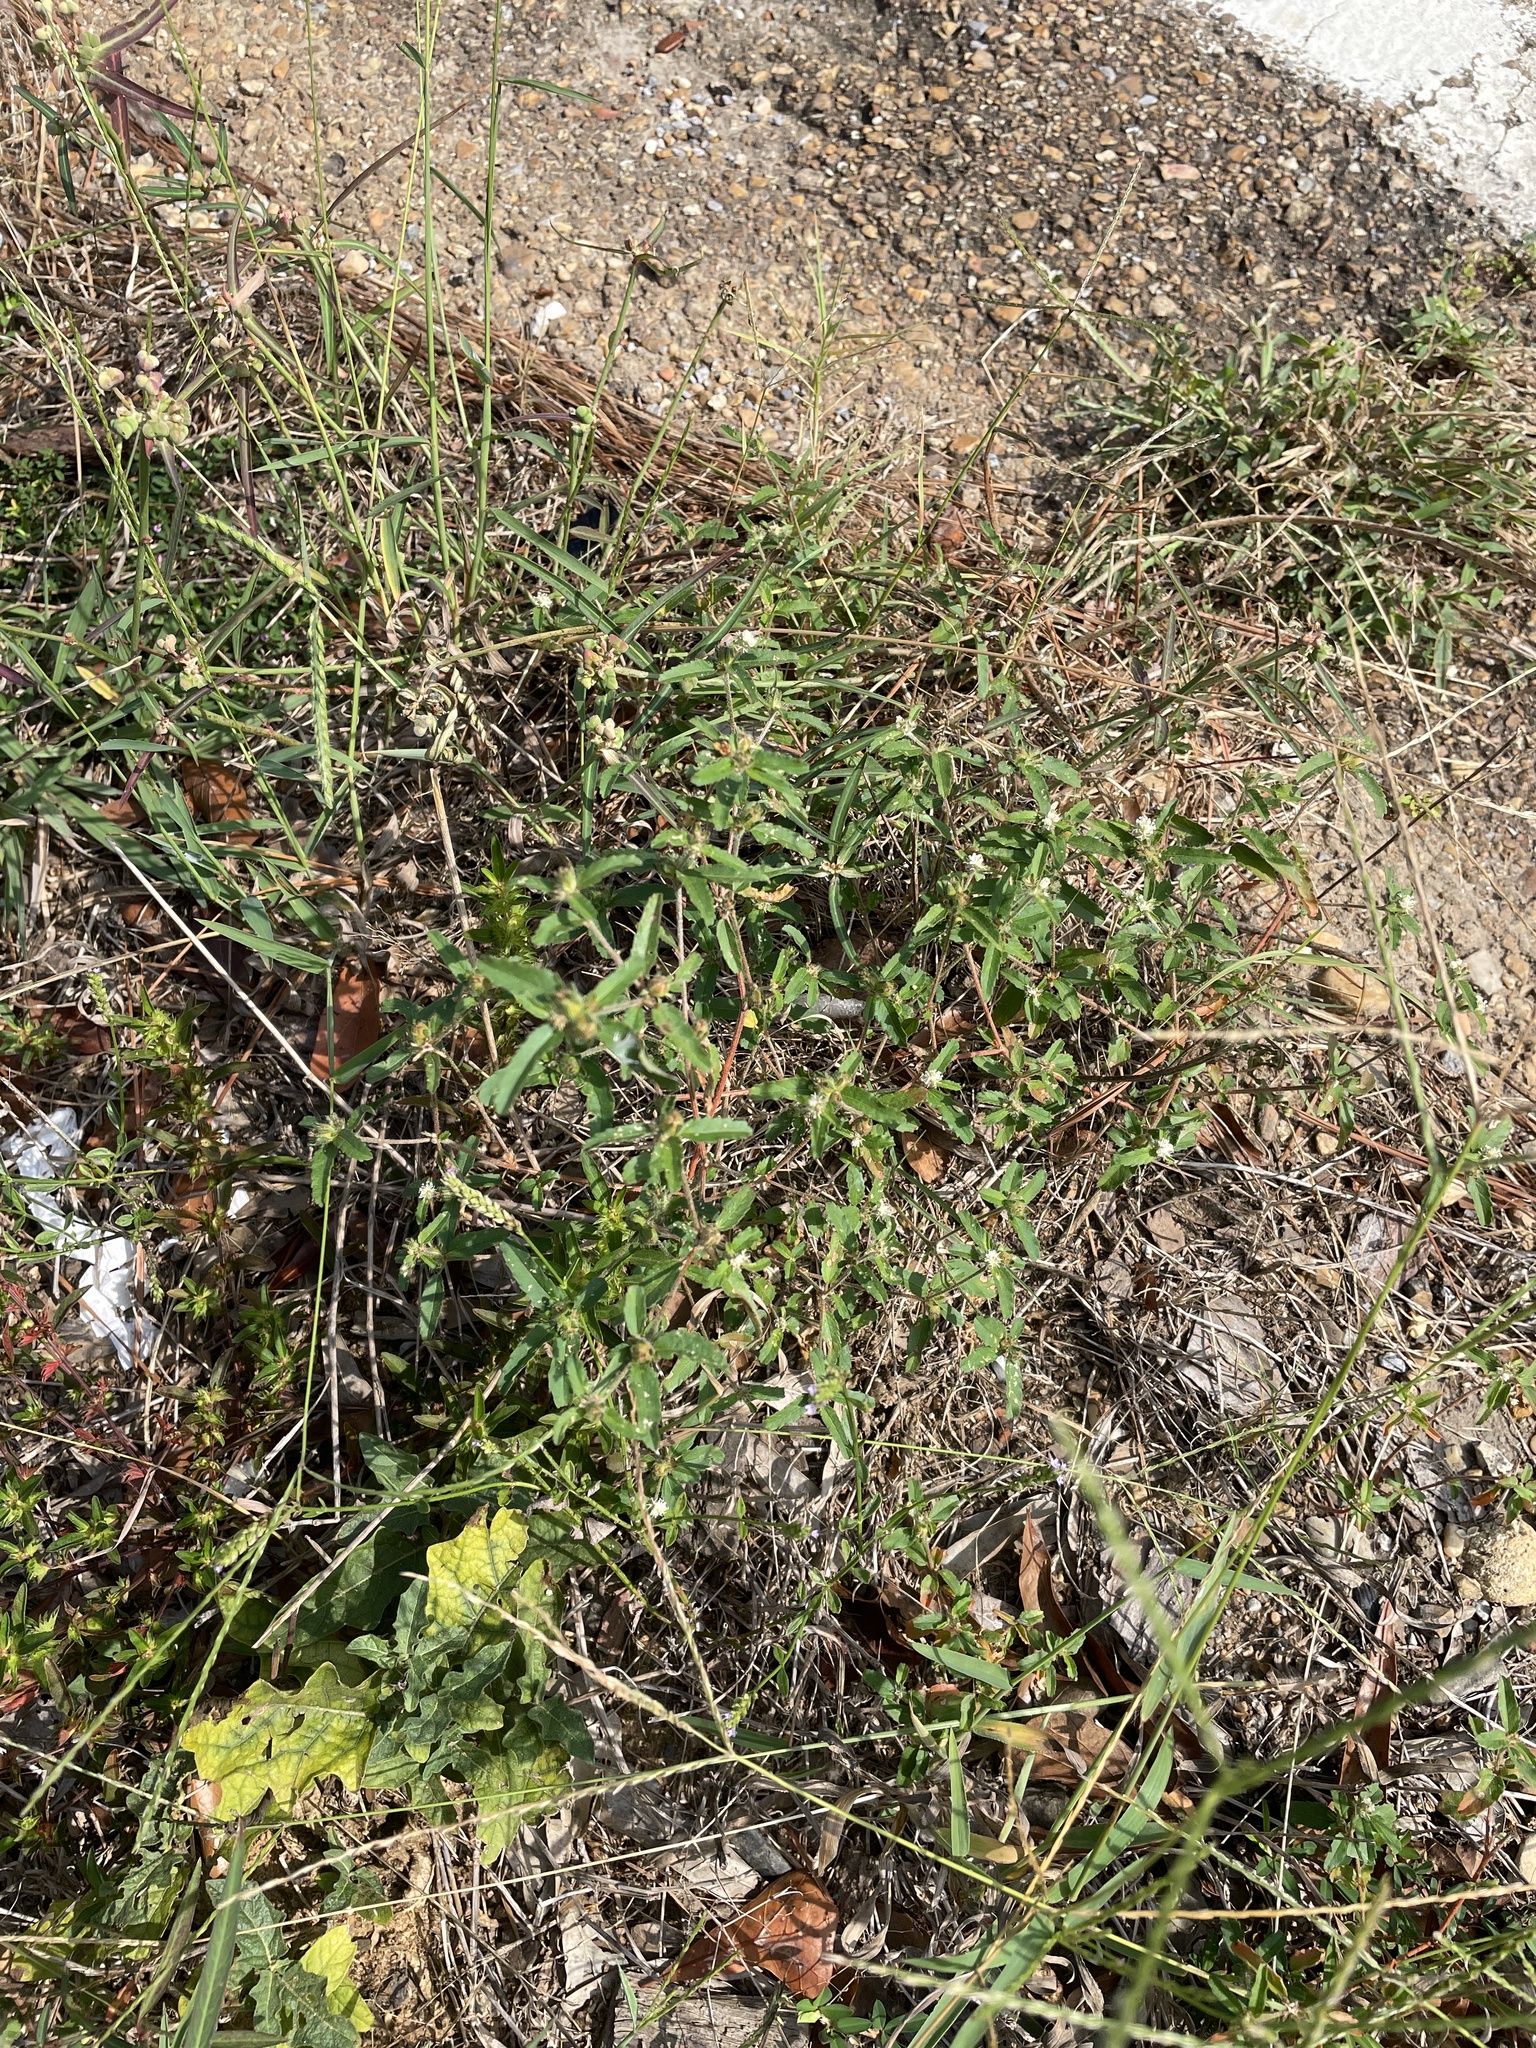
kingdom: Plantae
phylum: Tracheophyta
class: Magnoliopsida
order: Malpighiales
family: Euphorbiaceae
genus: Croton
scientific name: Croton glandulosus
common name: Tropic croton
